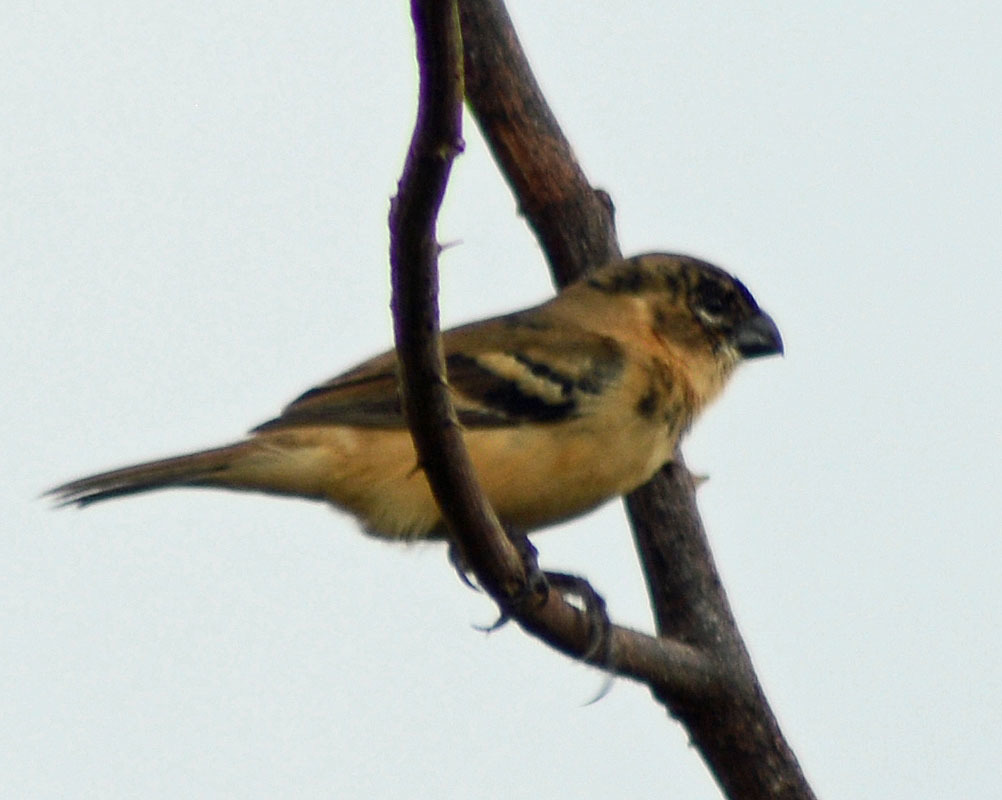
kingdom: Animalia
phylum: Chordata
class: Aves
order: Passeriformes
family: Thraupidae
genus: Sporophila
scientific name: Sporophila morelleti
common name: Morelet's seedeater
